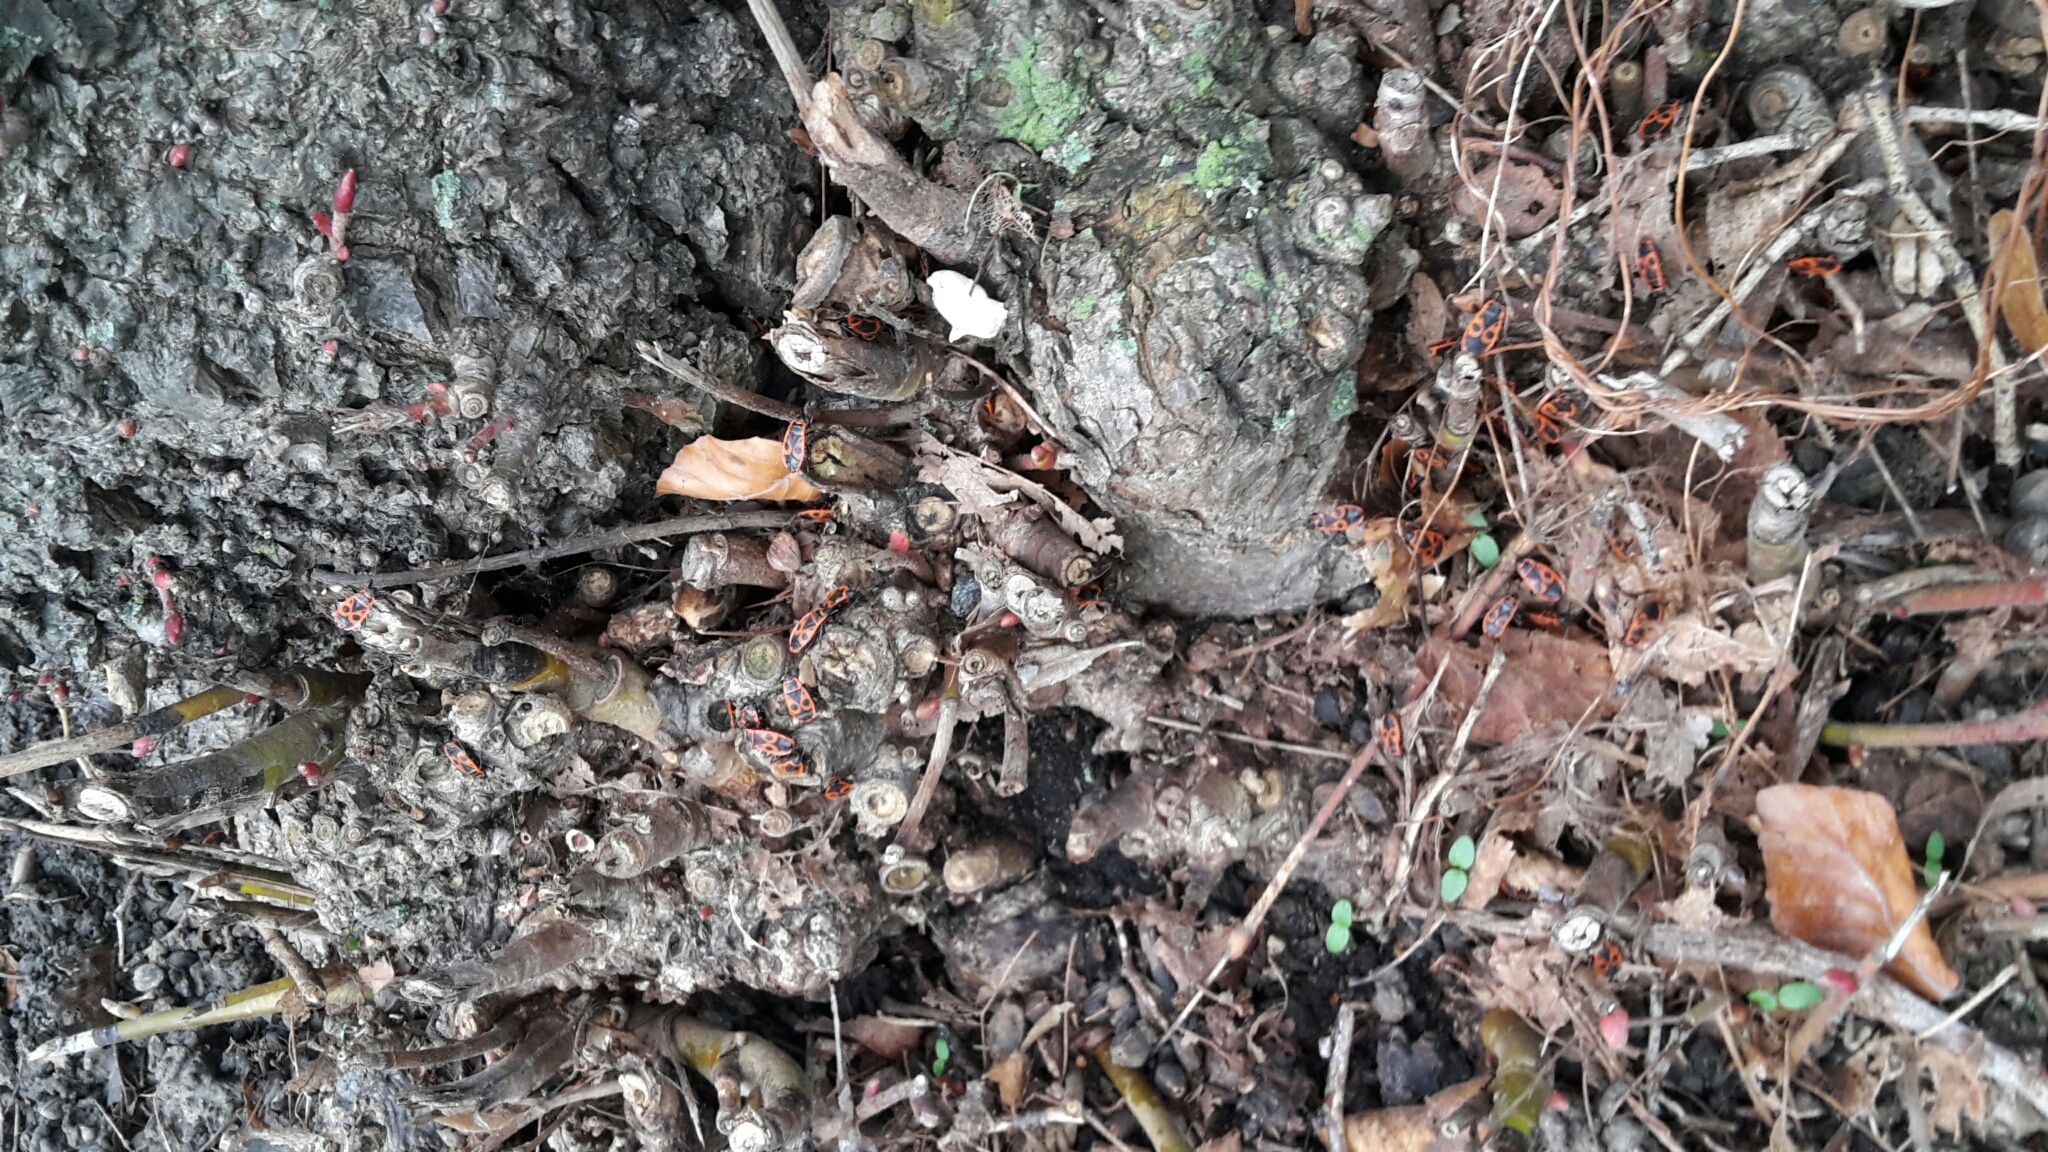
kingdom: Animalia
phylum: Arthropoda
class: Insecta
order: Hemiptera
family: Pyrrhocoridae
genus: Pyrrhocoris
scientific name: Pyrrhocoris apterus
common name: Firebug
